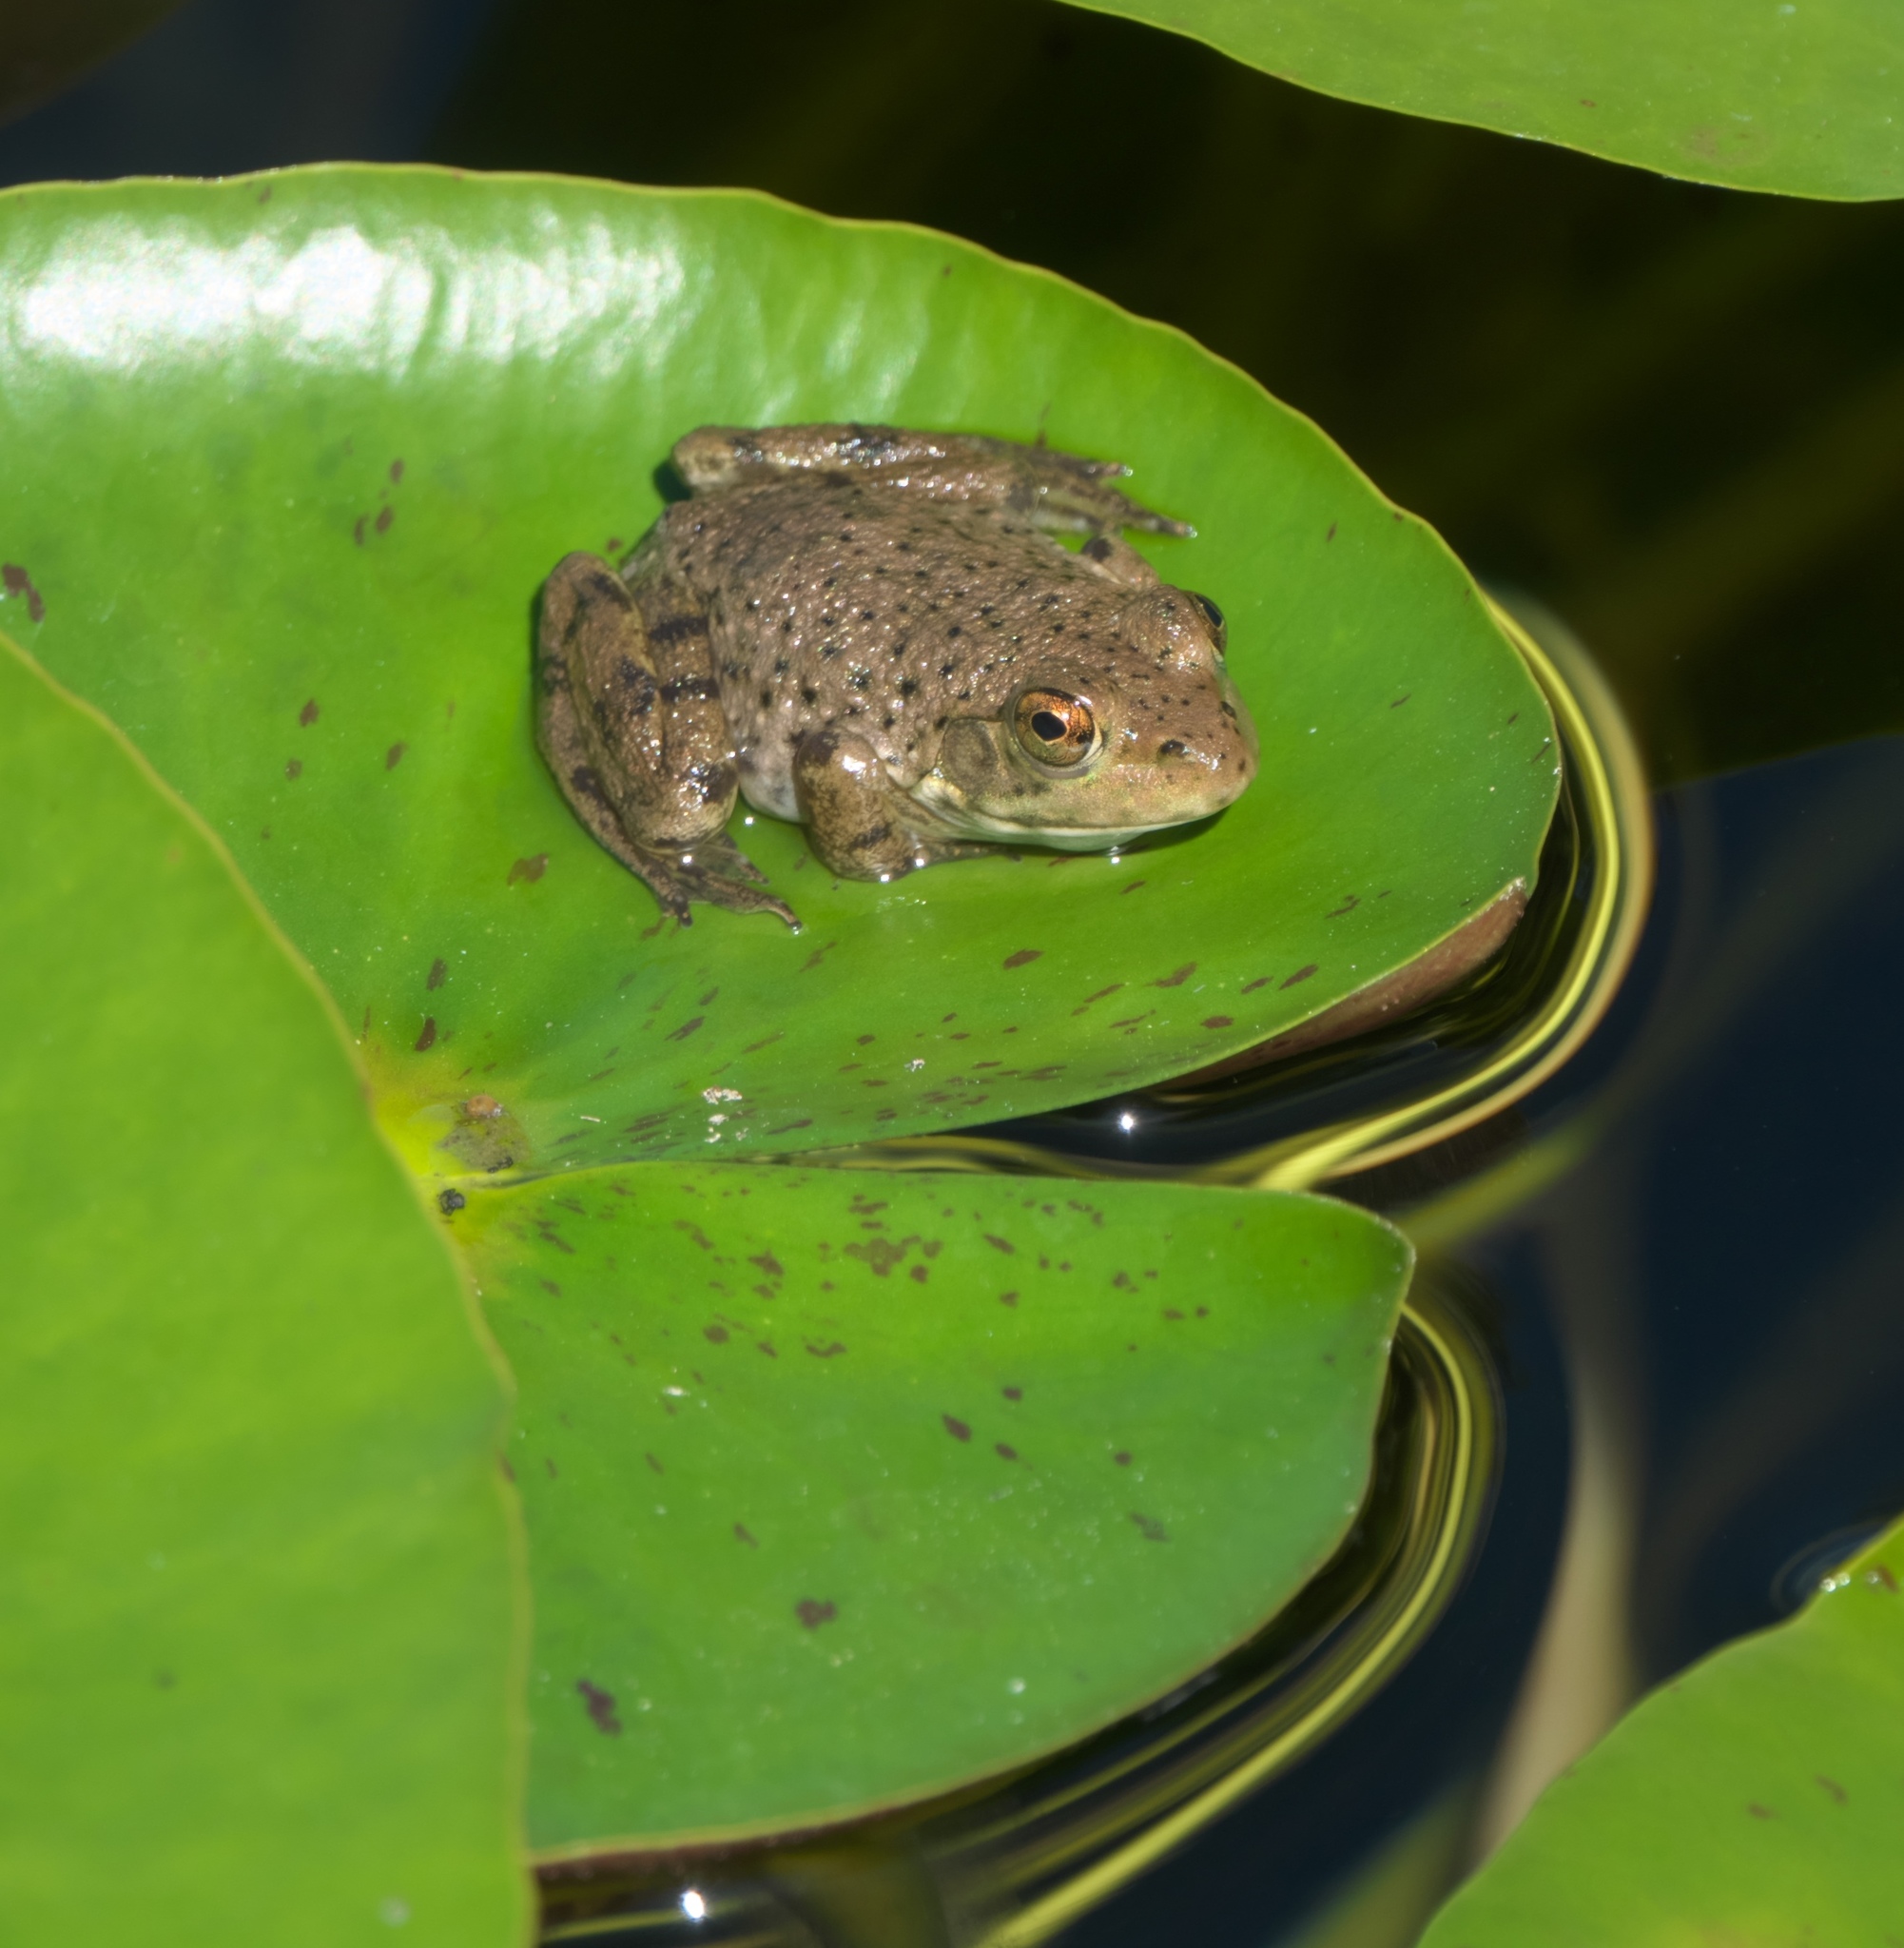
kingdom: Animalia
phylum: Chordata
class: Amphibia
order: Anura
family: Ranidae
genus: Lithobates
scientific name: Lithobates catesbeianus
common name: American bullfrog
